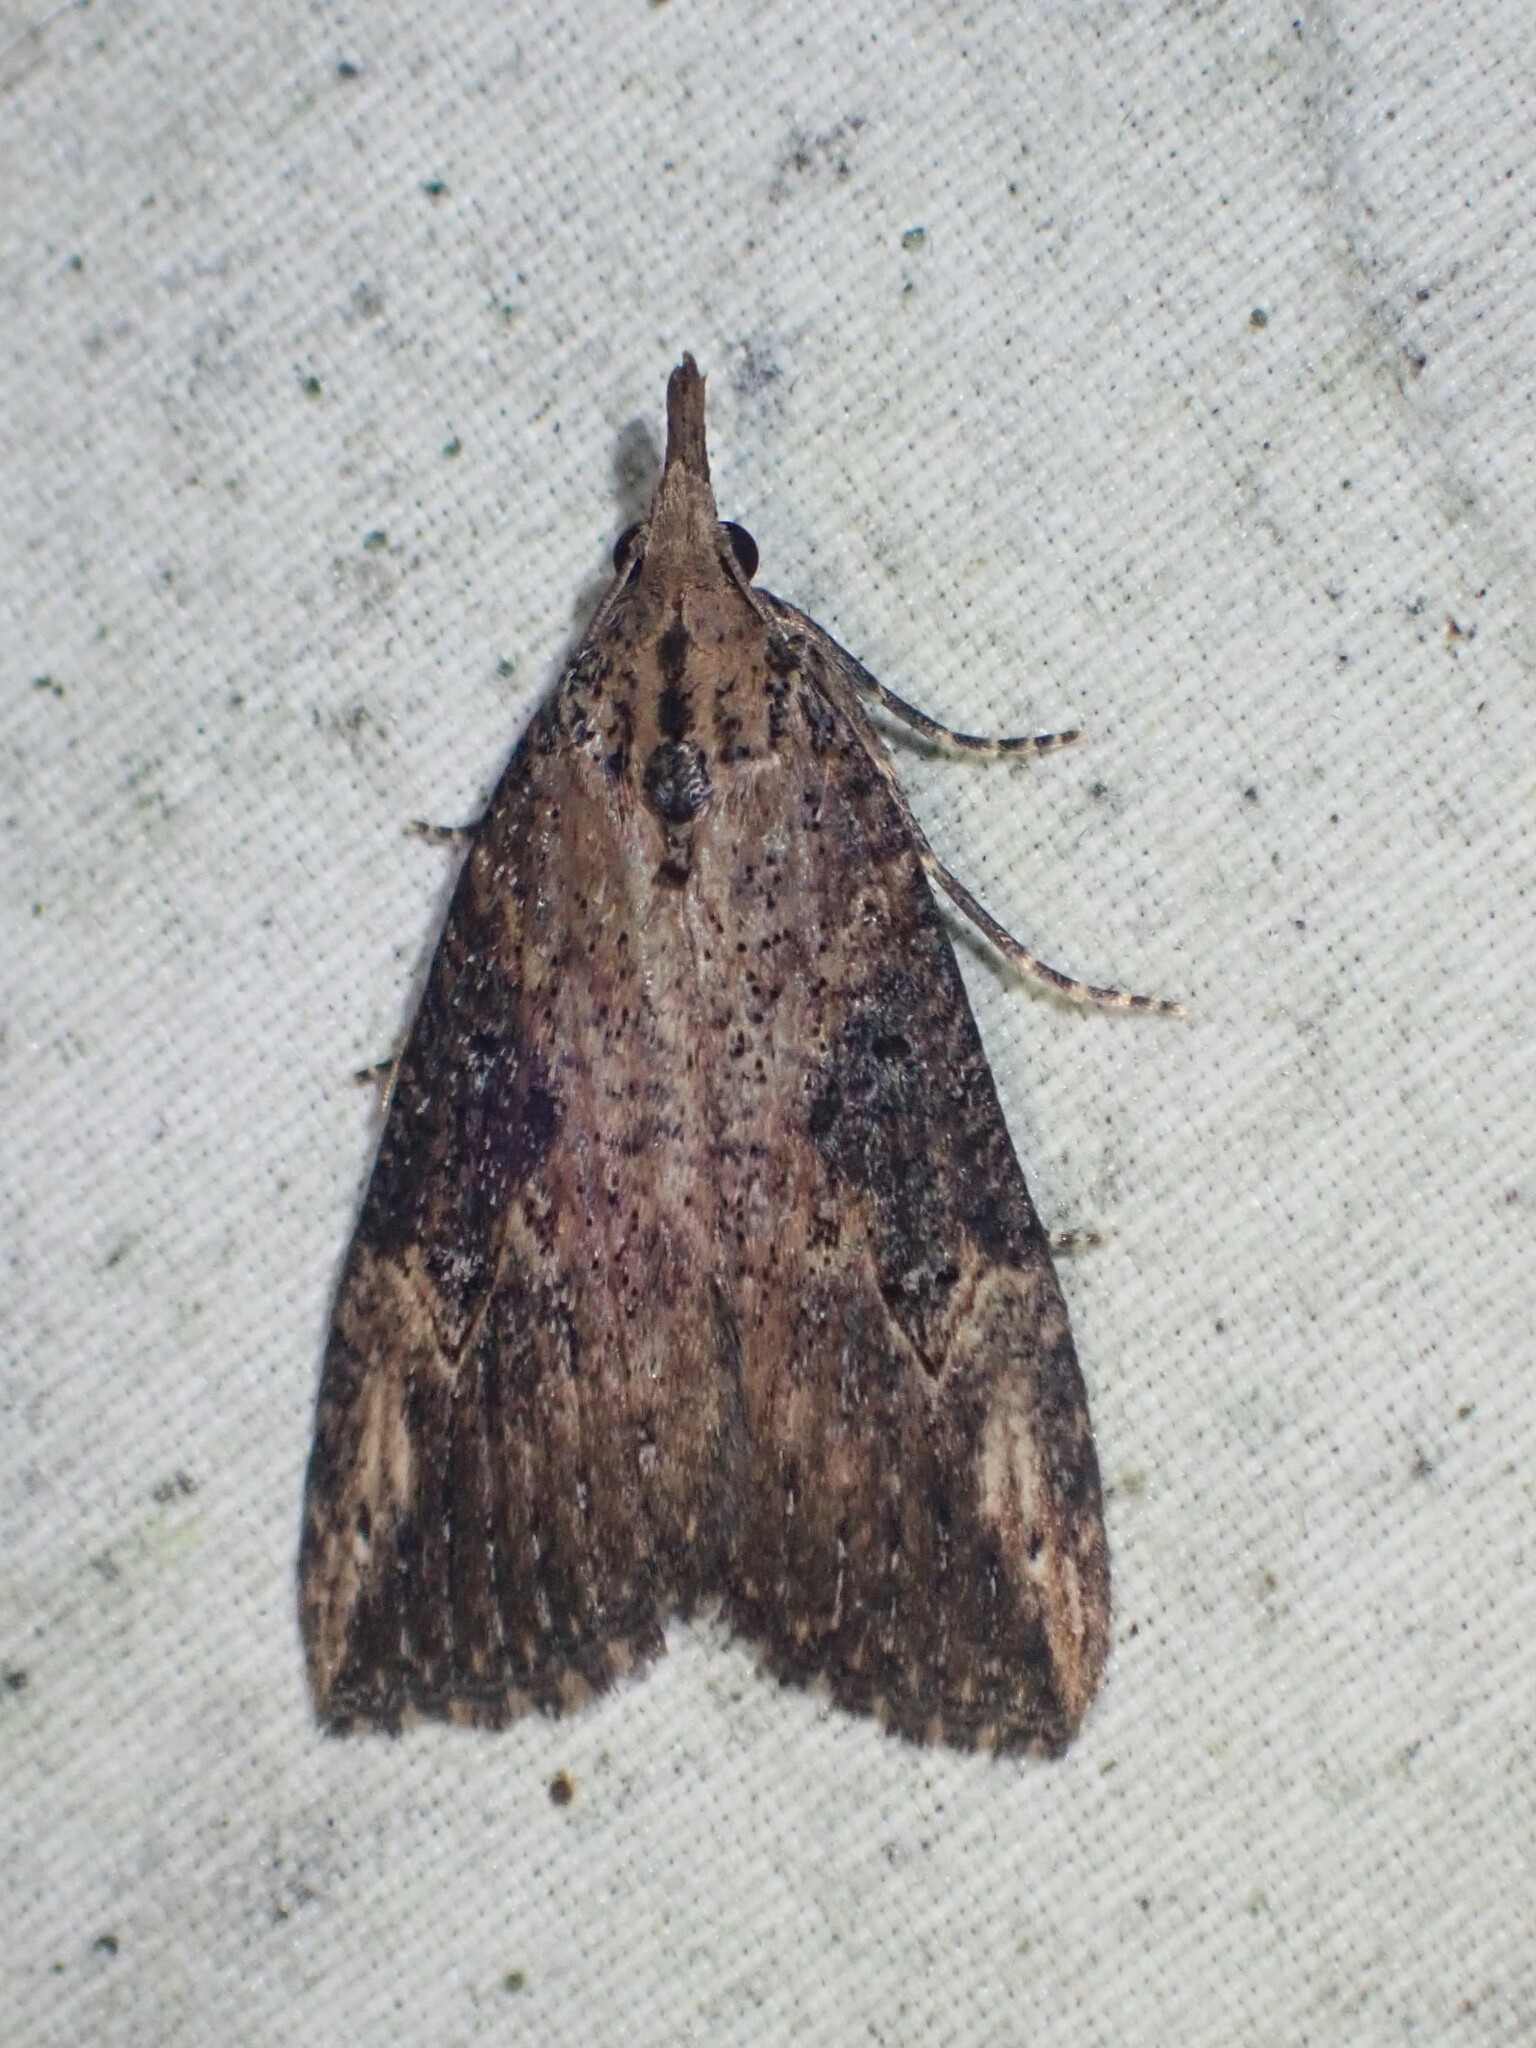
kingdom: Animalia
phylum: Arthropoda
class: Insecta
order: Lepidoptera
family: Erebidae
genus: Hypena
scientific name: Hypena humuli
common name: Hop vine snout
